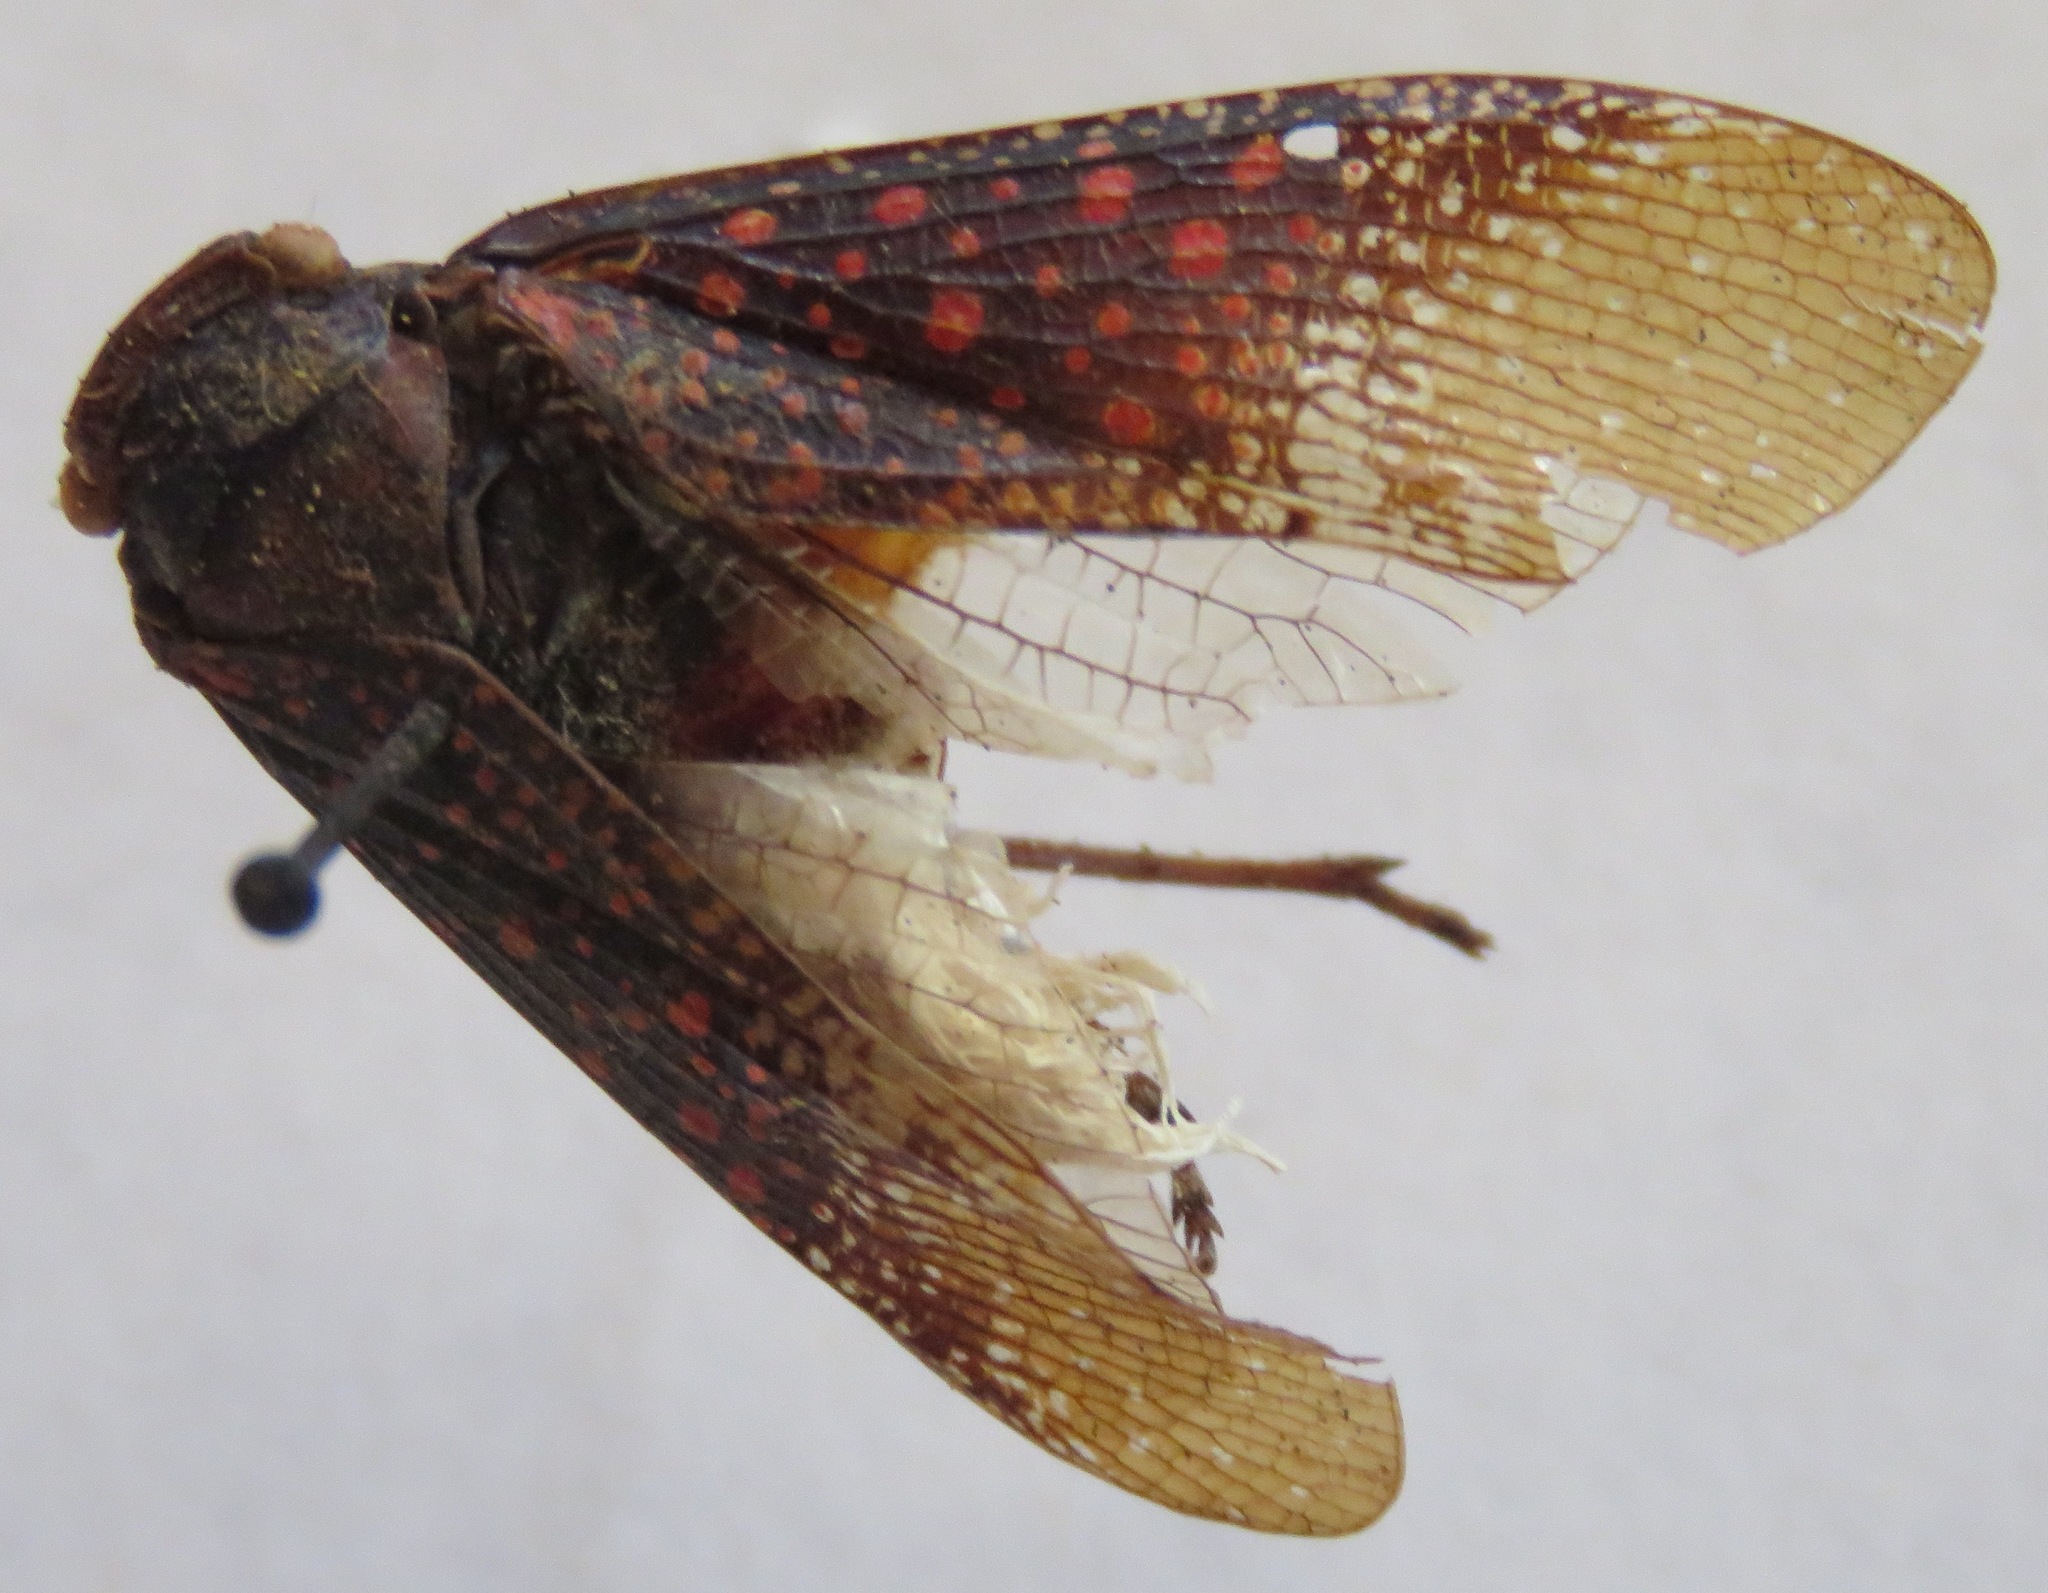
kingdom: Animalia
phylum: Arthropoda
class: Insecta
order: Hemiptera
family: Fulgoridae
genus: Alaruasa
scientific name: Alaruasa
